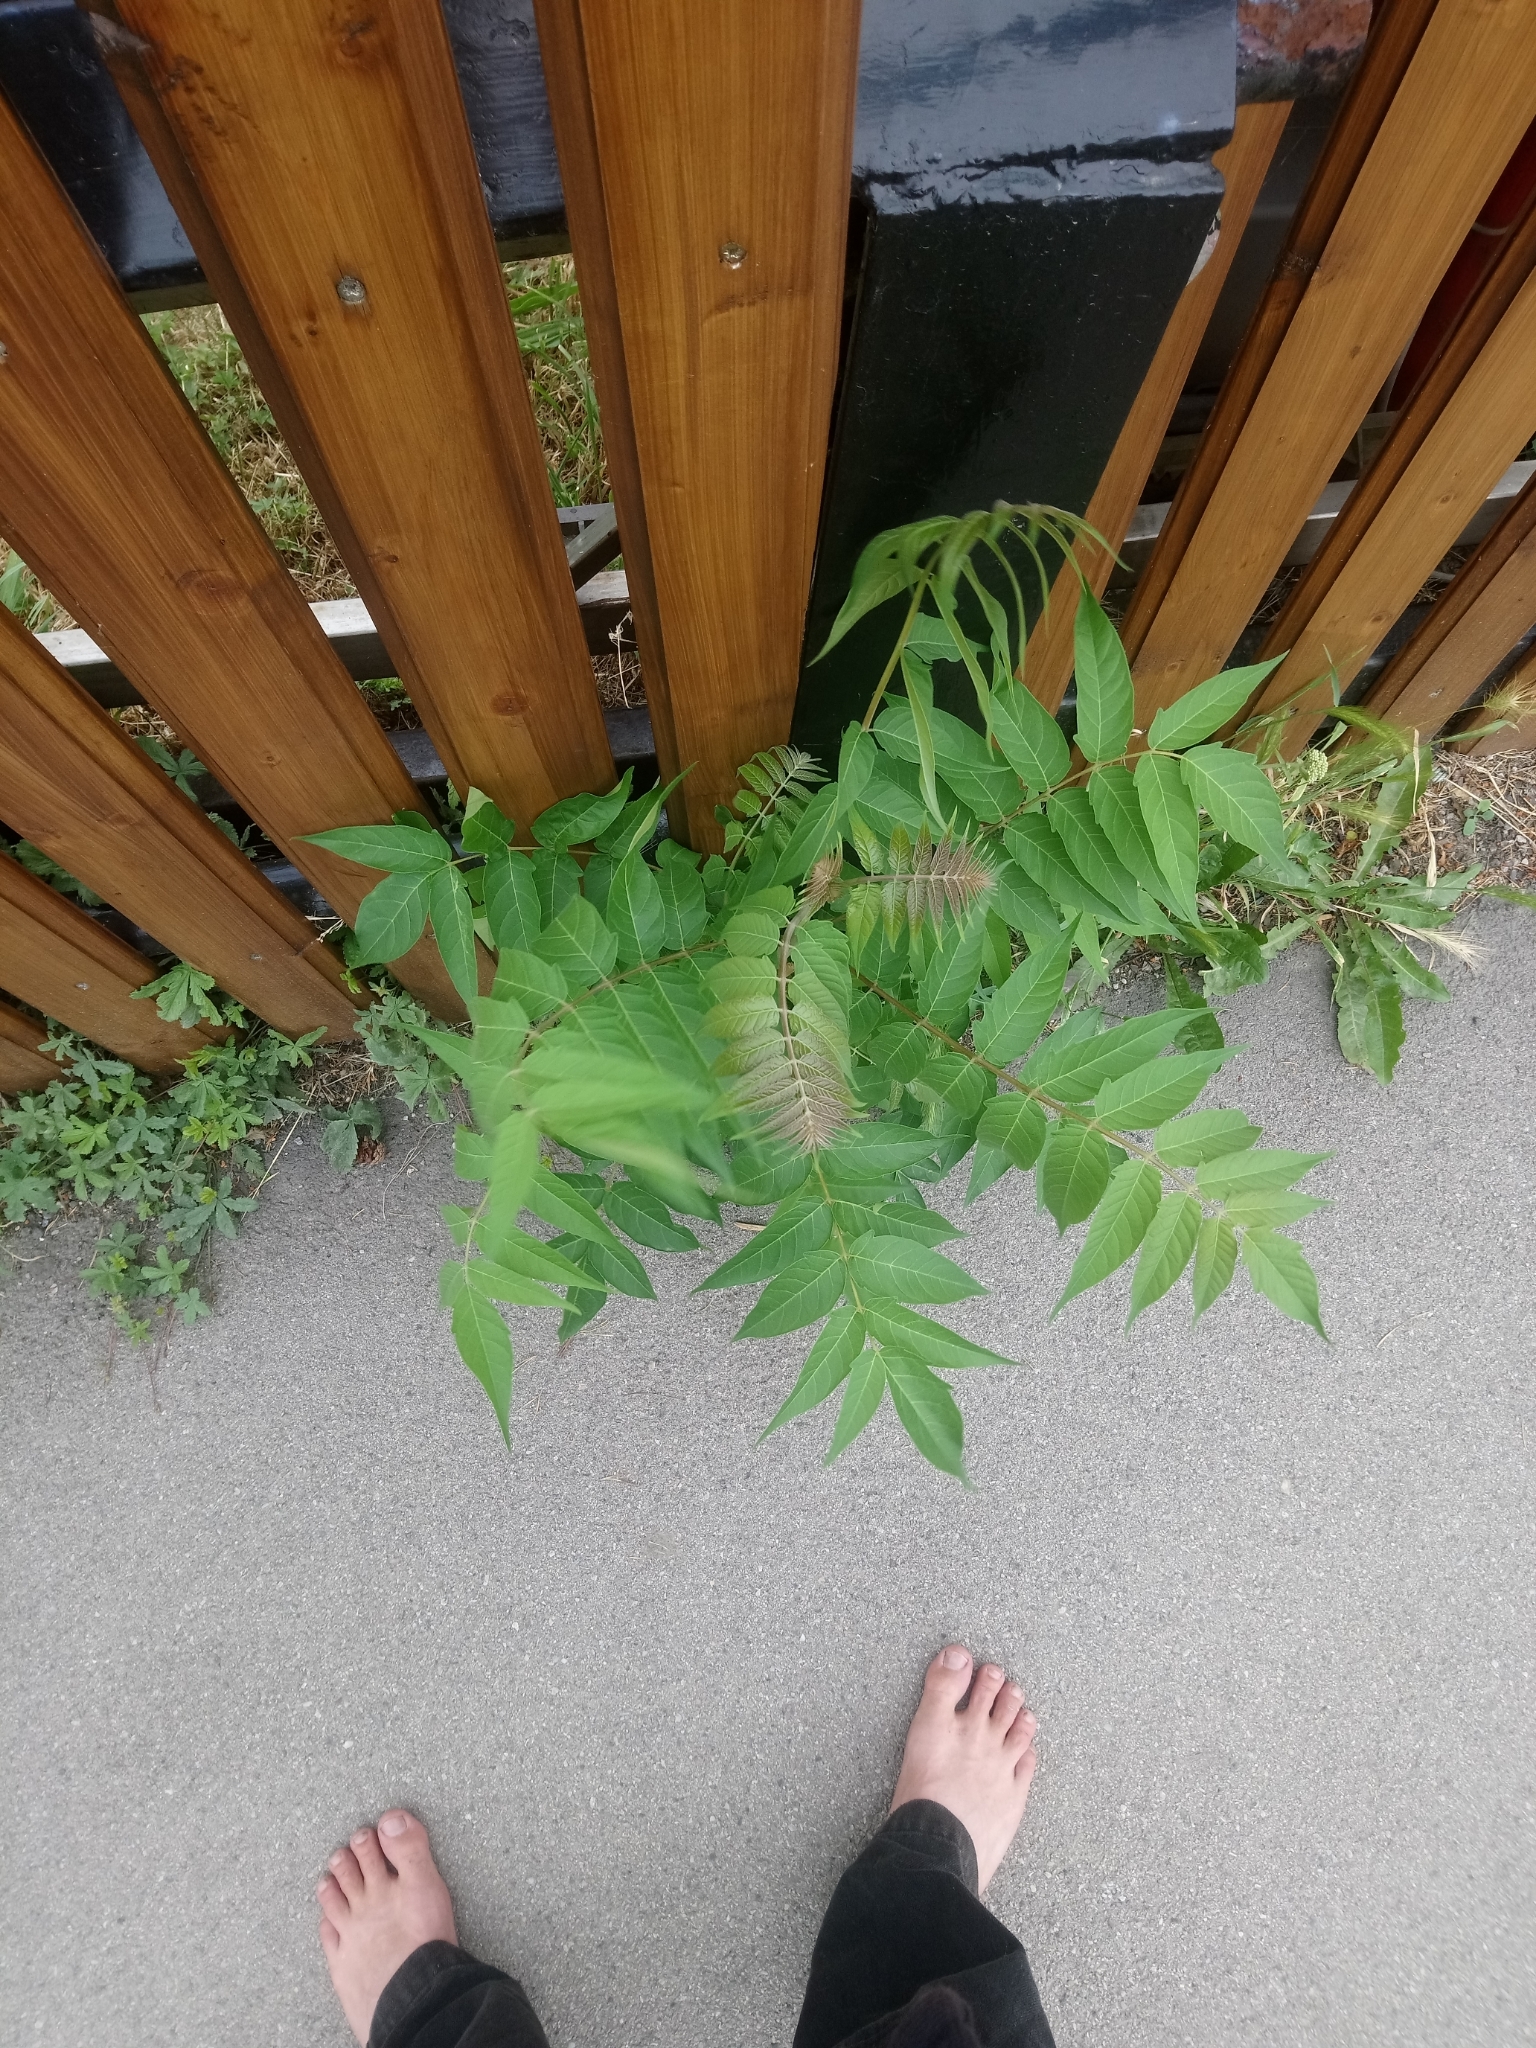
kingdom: Plantae
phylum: Tracheophyta
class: Magnoliopsida
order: Sapindales
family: Simaroubaceae
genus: Ailanthus
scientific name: Ailanthus altissima
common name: Tree-of-heaven
